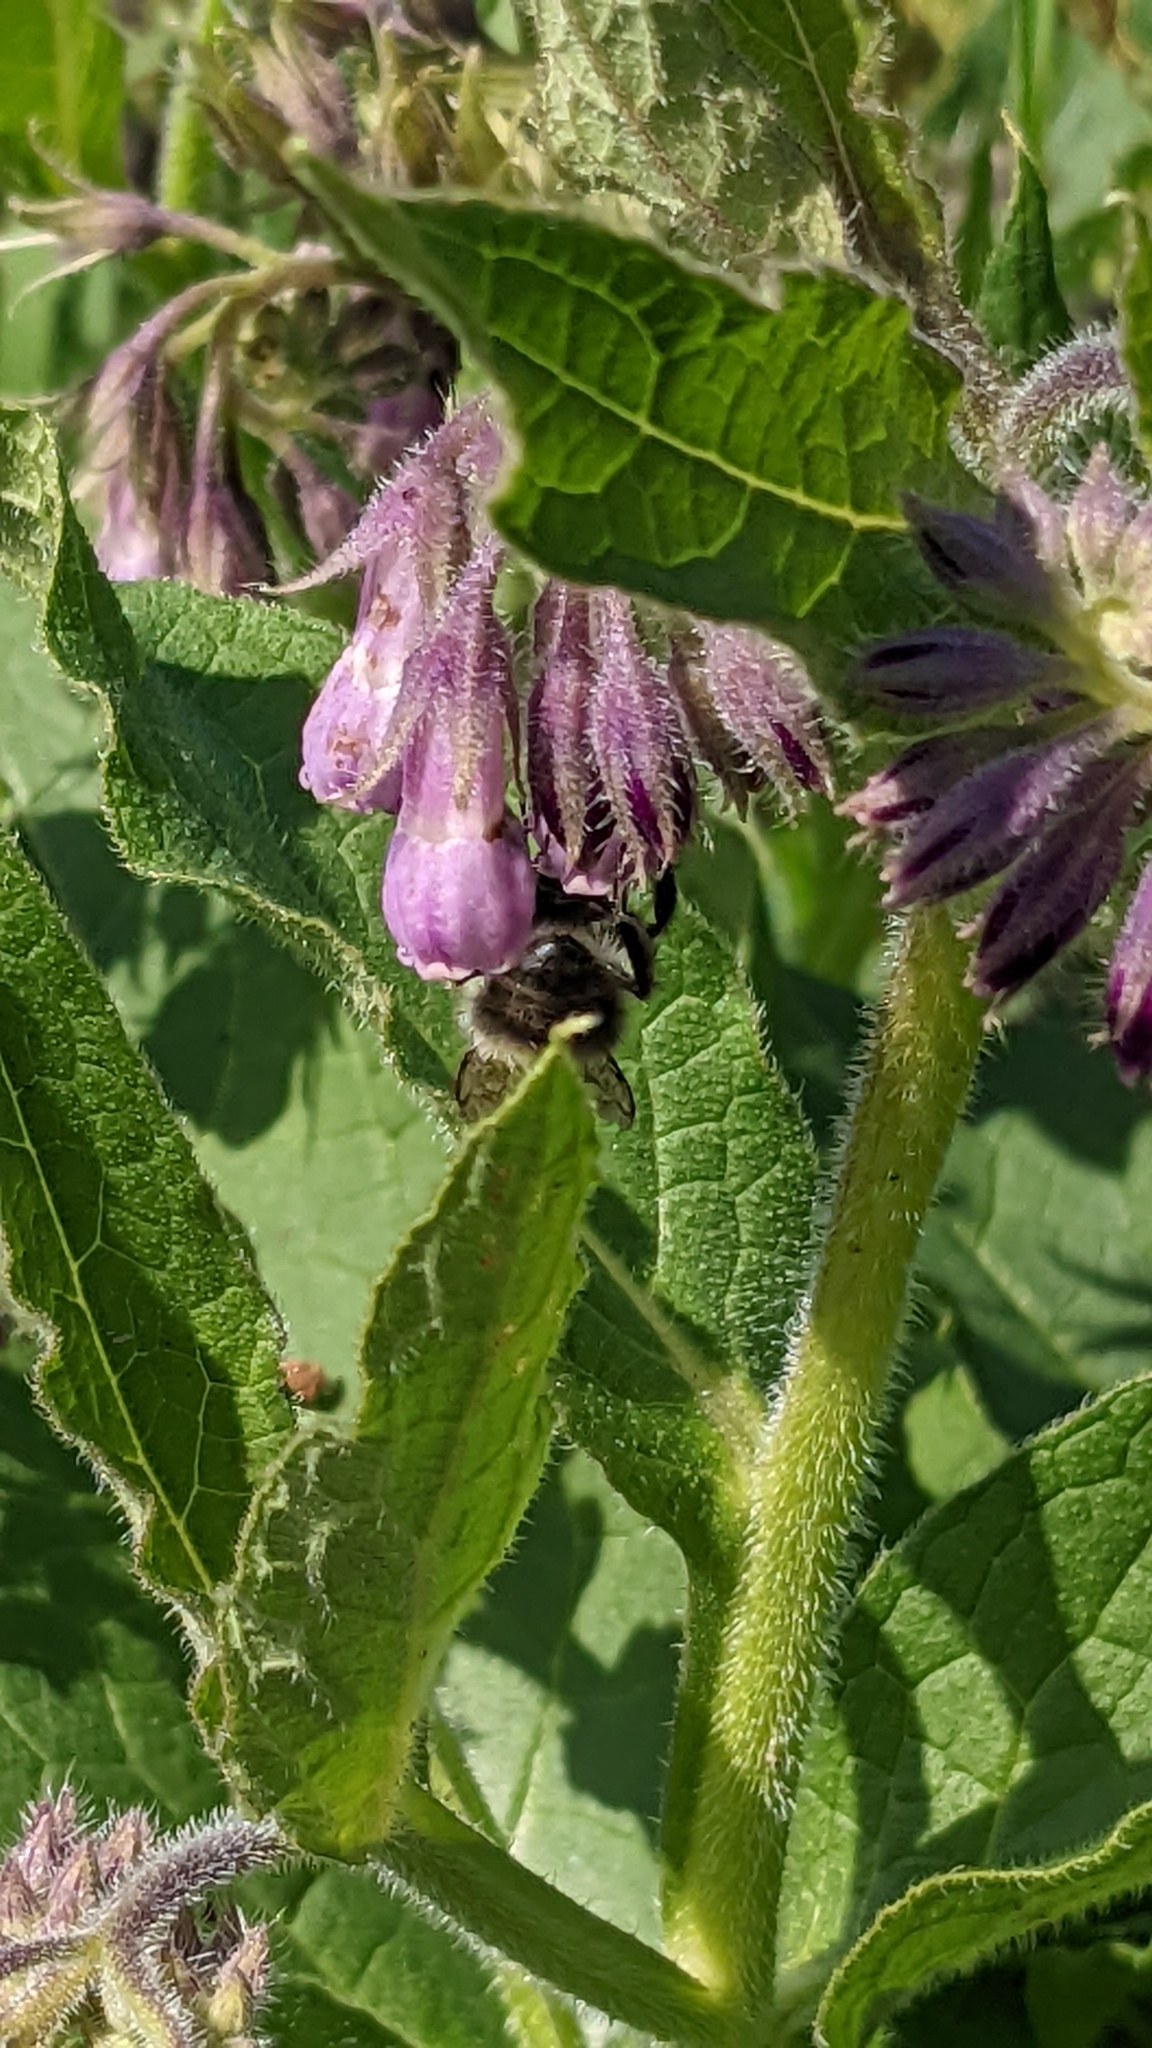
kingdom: Plantae
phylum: Tracheophyta
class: Magnoliopsida
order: Boraginales
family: Boraginaceae
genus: Symphytum
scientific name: Symphytum officinale
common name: Common comfrey
